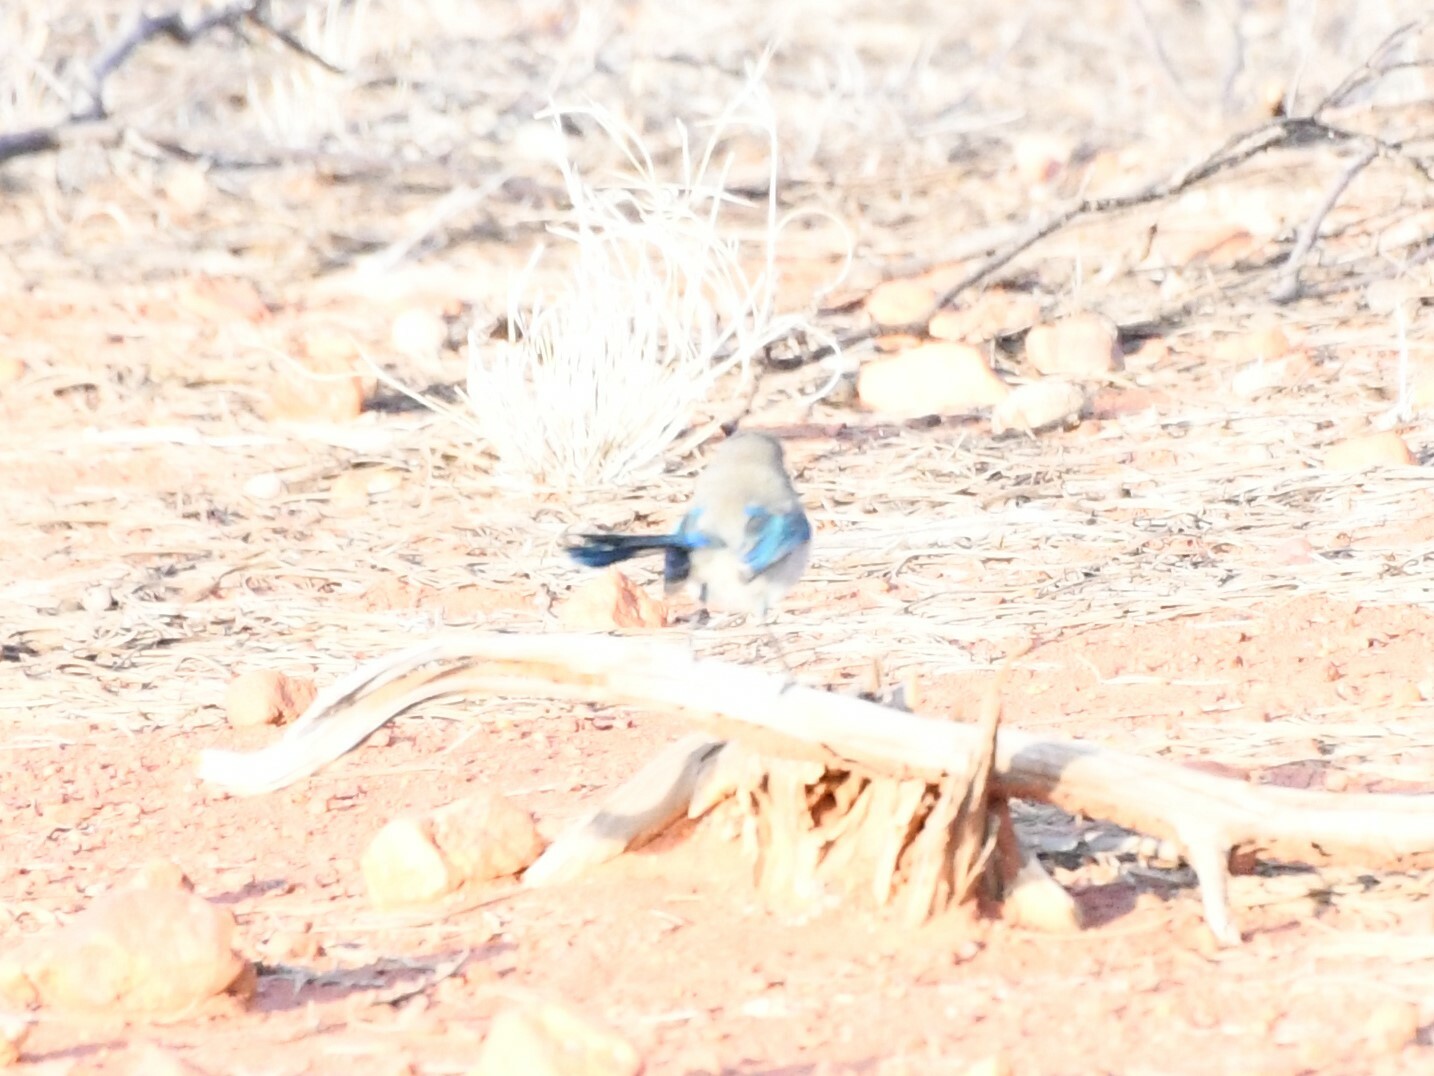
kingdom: Animalia
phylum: Chordata
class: Aves
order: Passeriformes
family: Maluridae
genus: Malurus
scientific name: Malurus splendens
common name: Splendid fairywren
